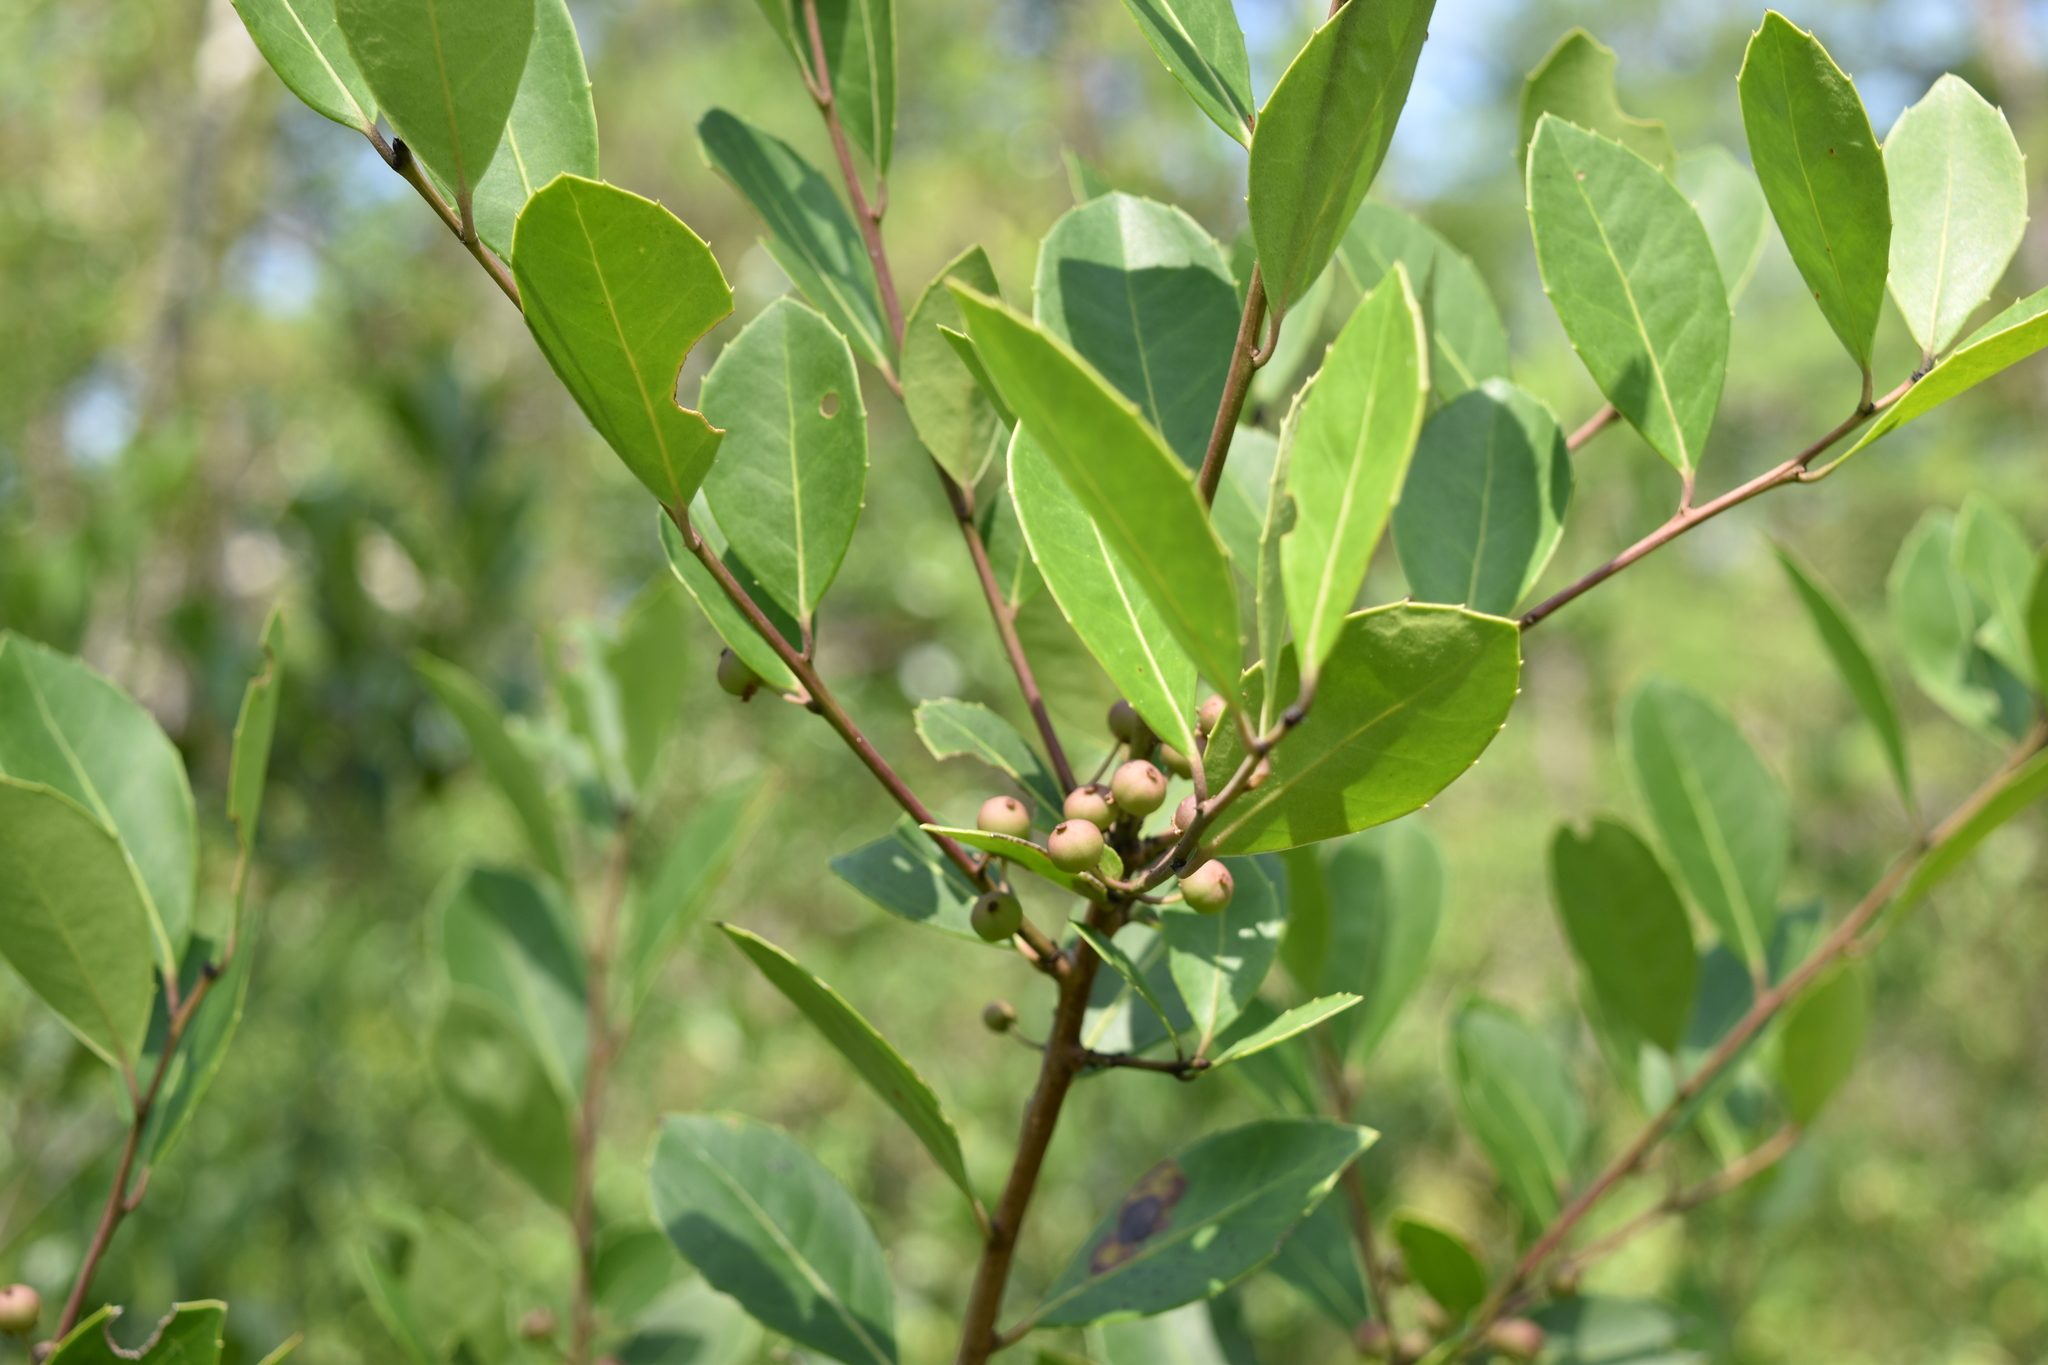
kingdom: Plantae
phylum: Tracheophyta
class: Magnoliopsida
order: Aquifoliales
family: Aquifoliaceae
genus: Ilex
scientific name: Ilex glabra
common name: Bitter gallberry
